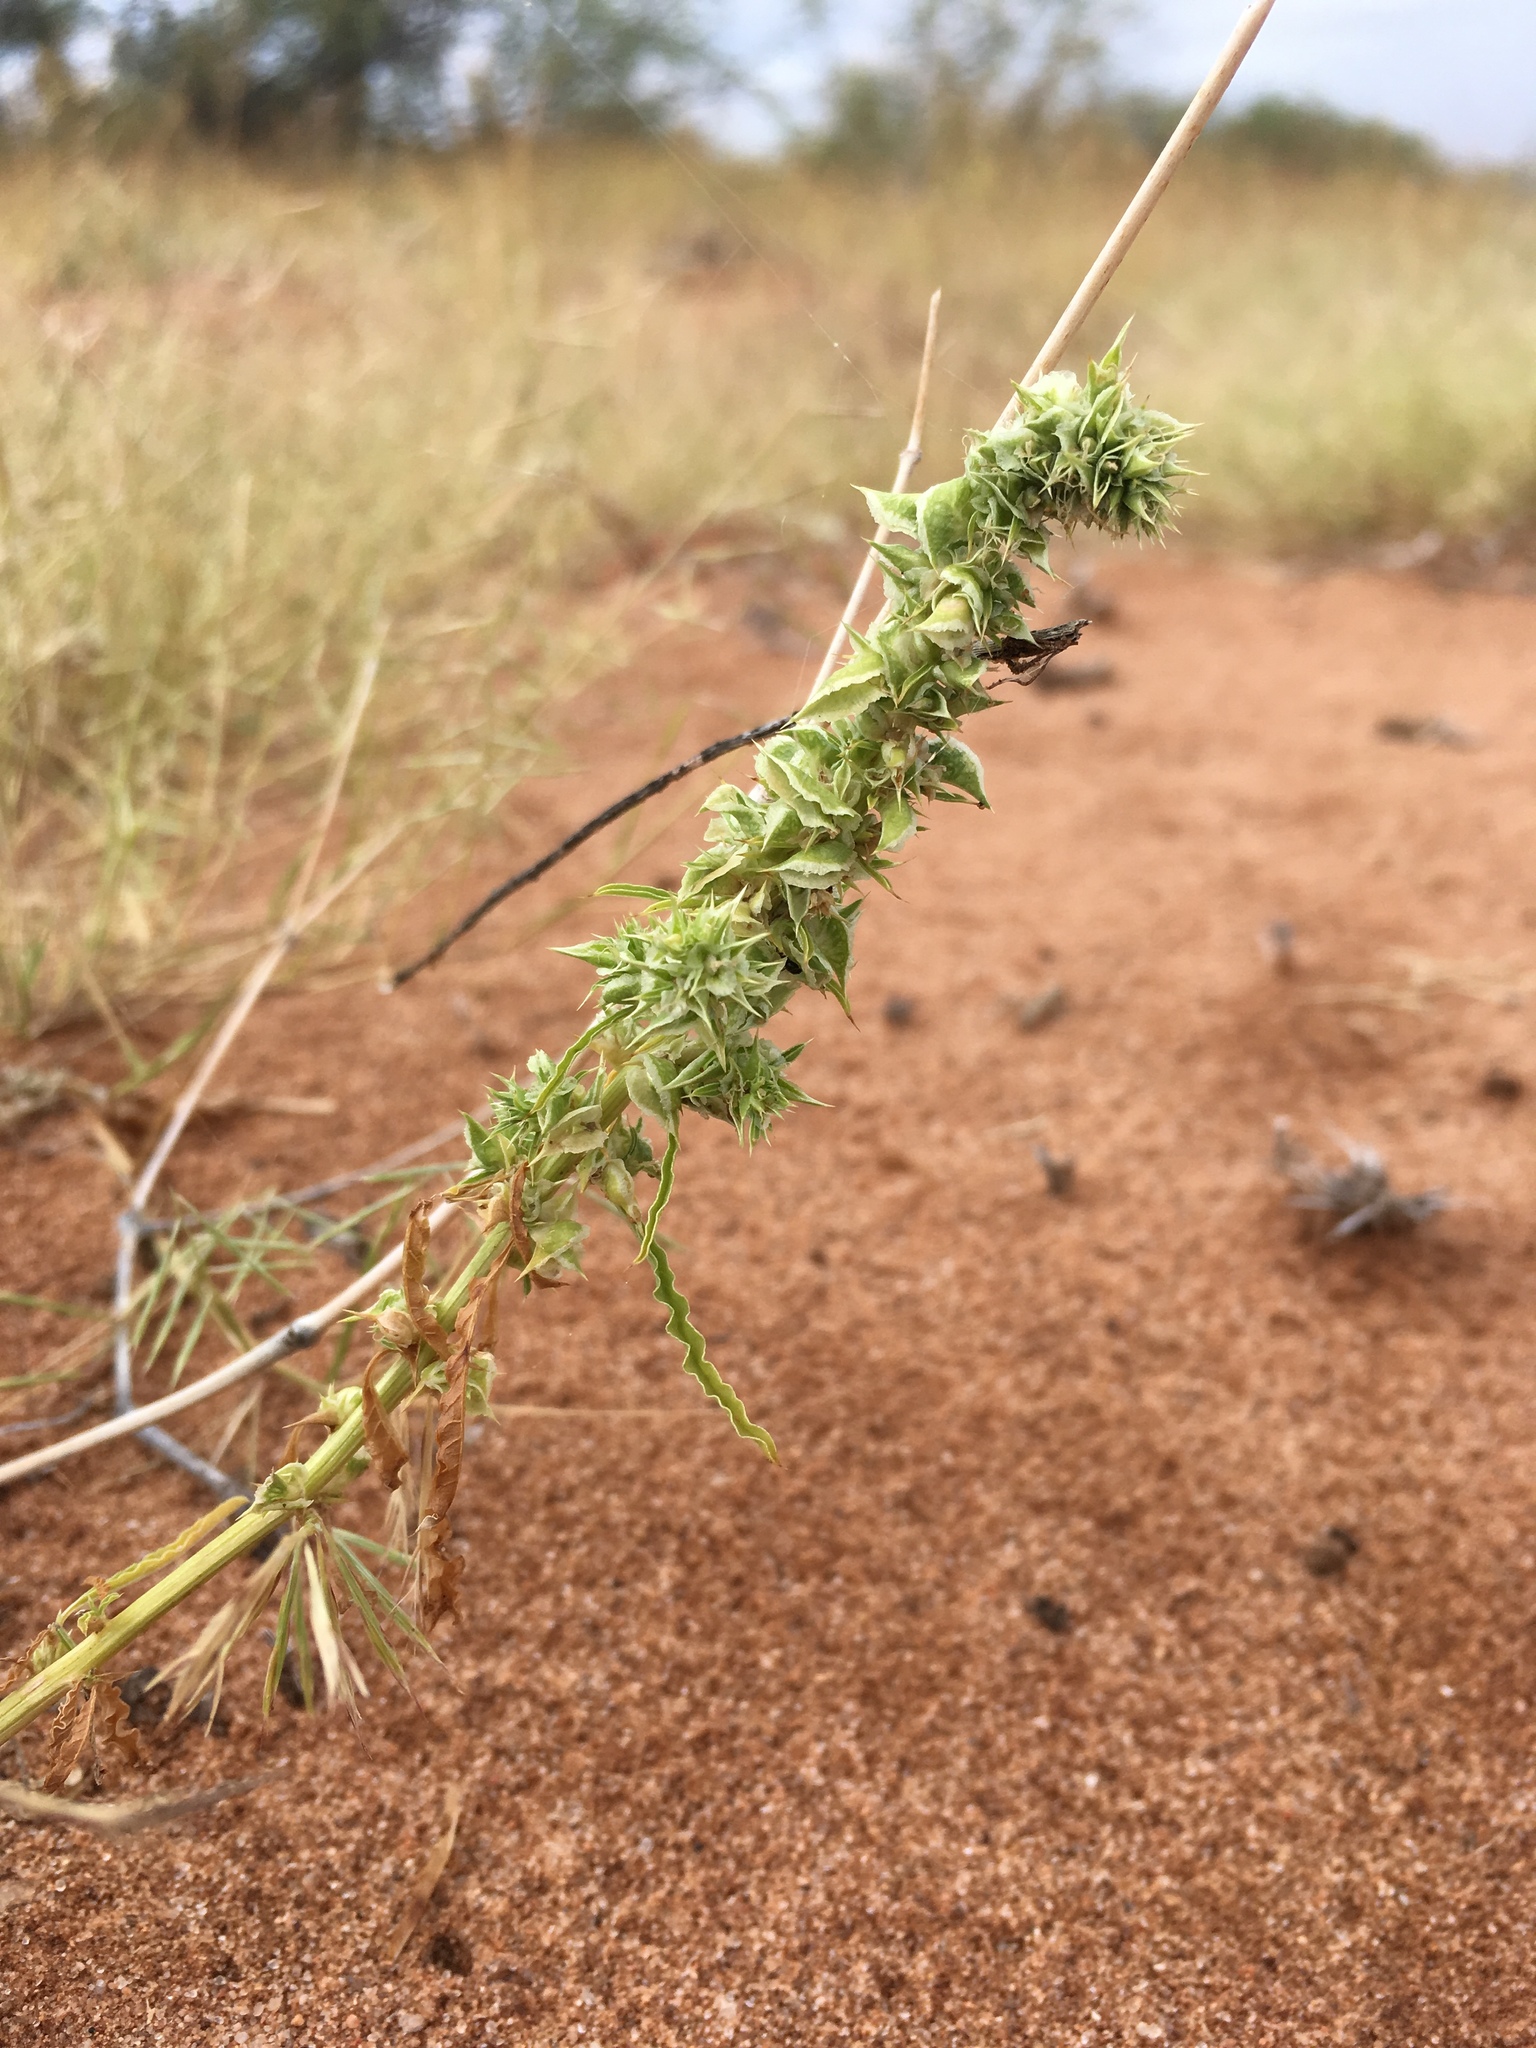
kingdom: Plantae
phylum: Tracheophyta
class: Magnoliopsida
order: Caryophyllales
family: Amaranthaceae
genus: Amaranthus
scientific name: Amaranthus acanthochiton
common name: Greenstripe
